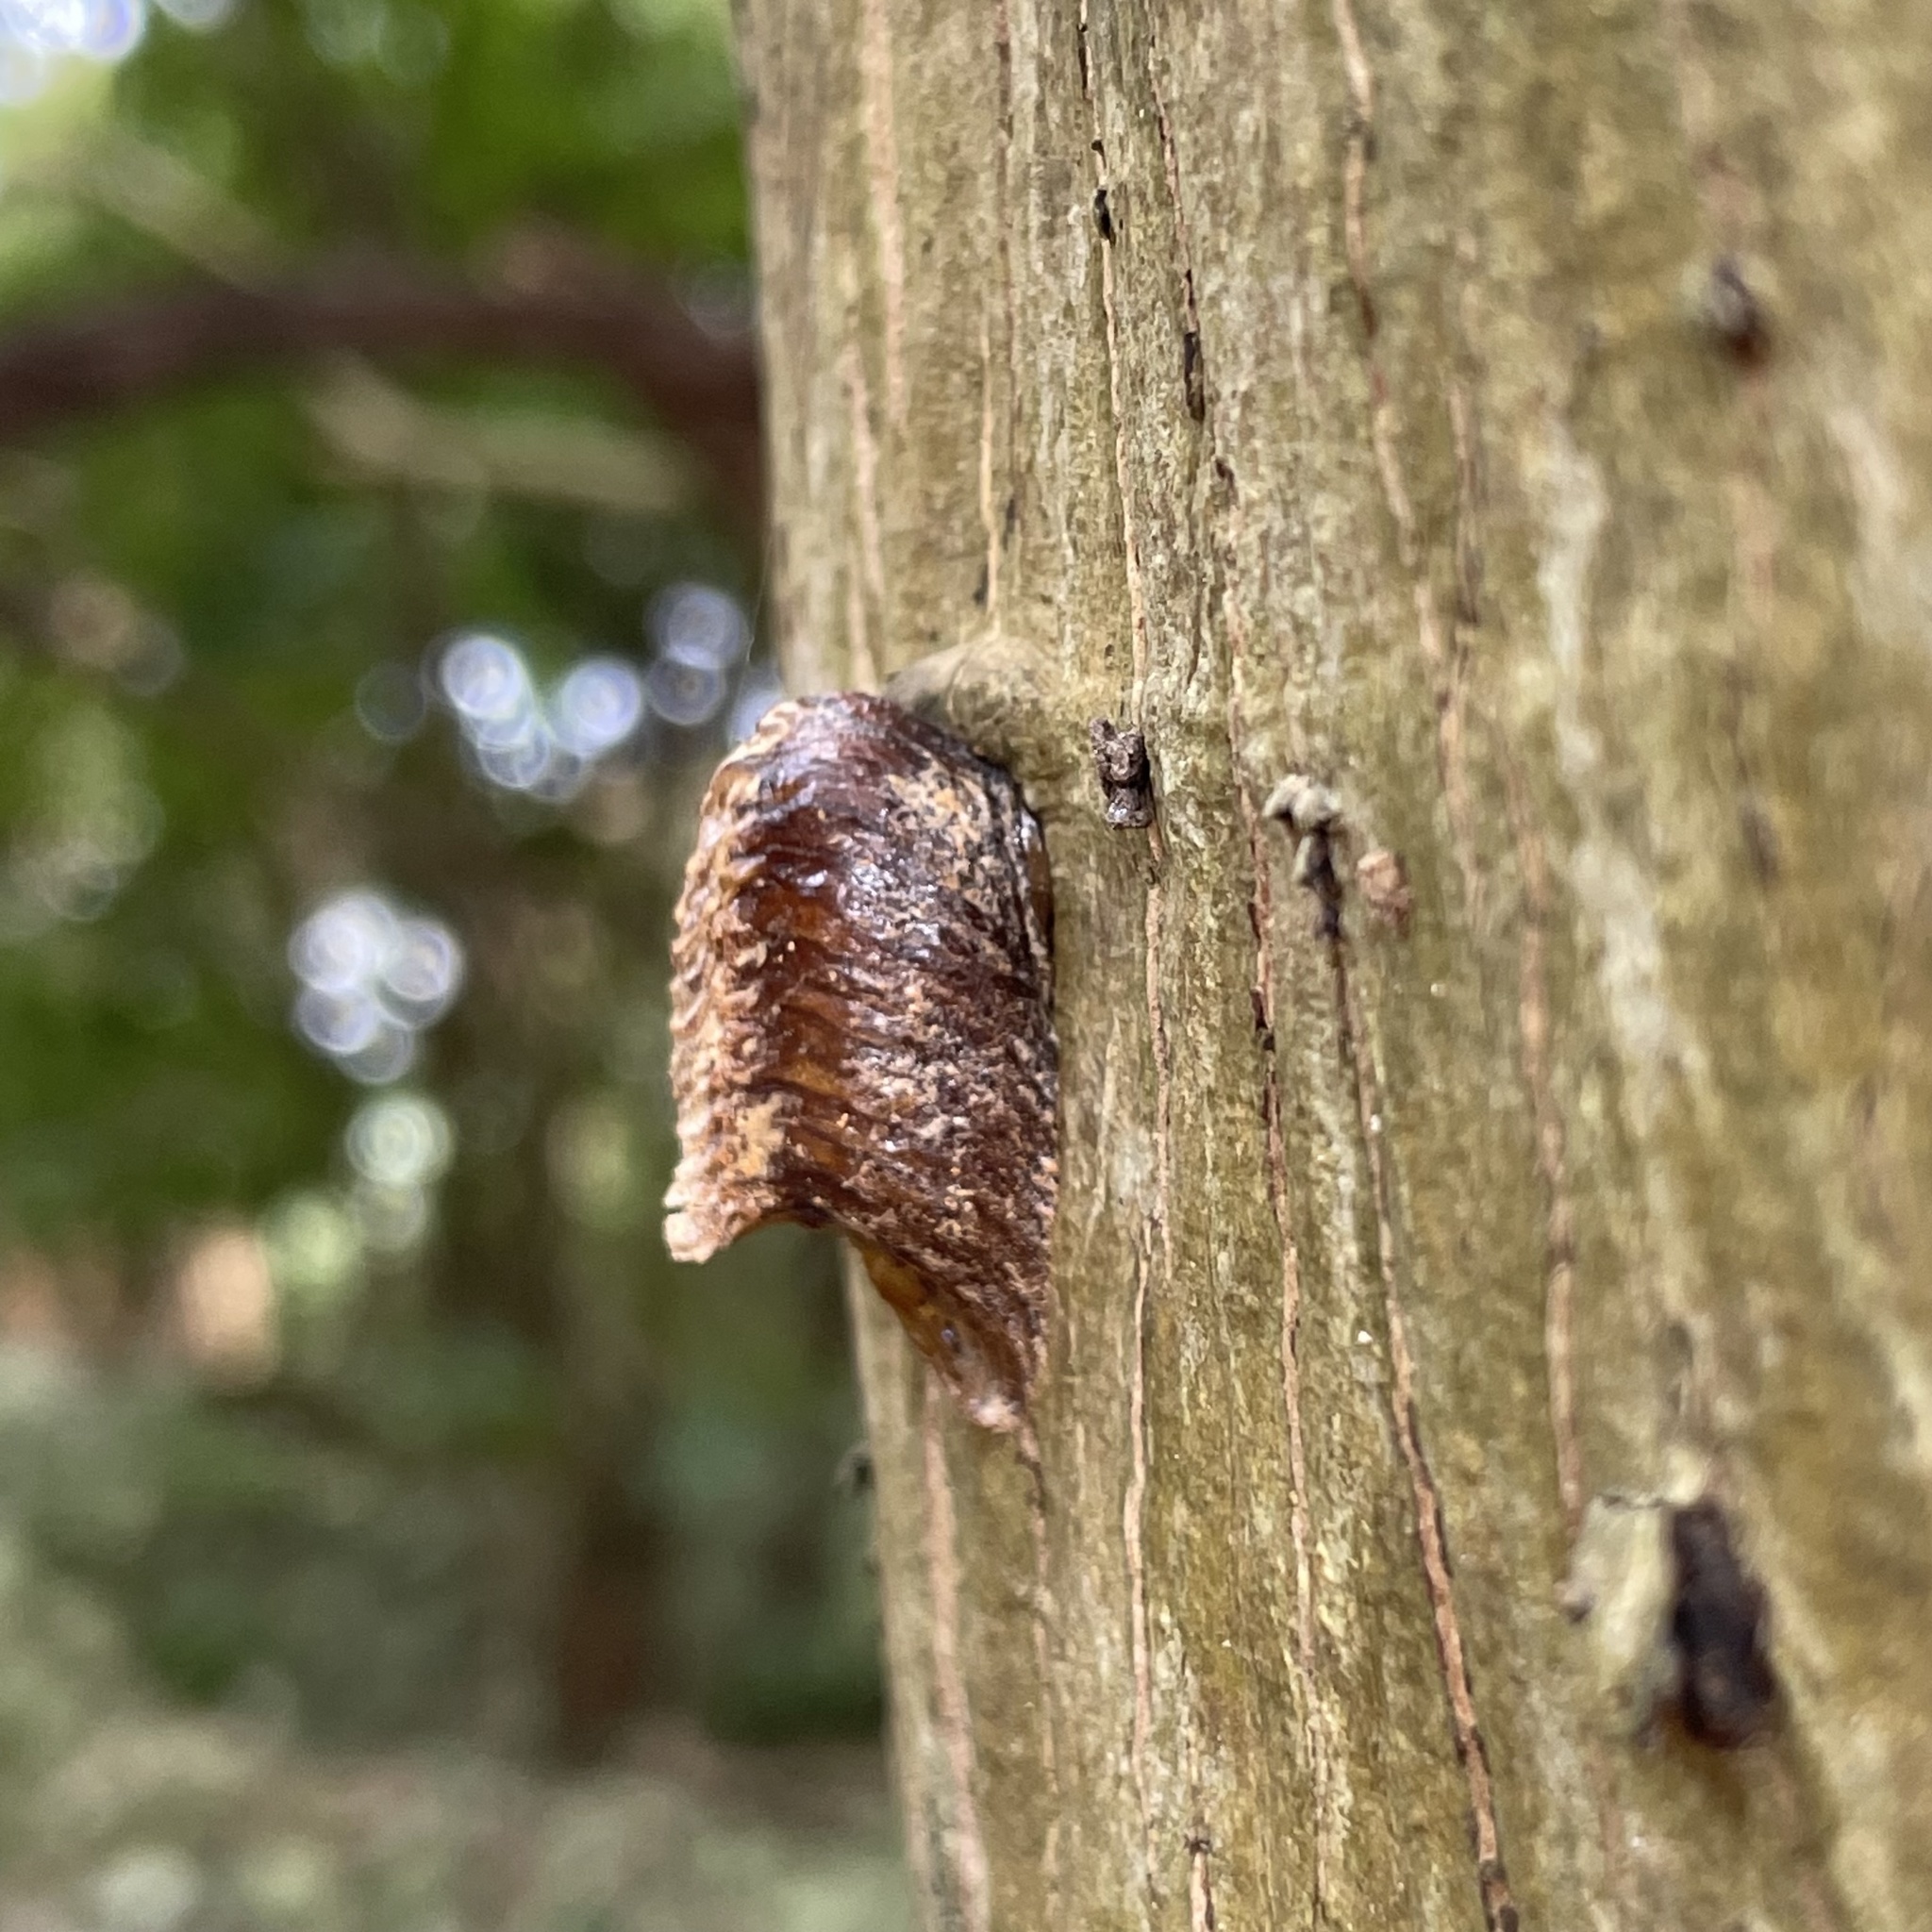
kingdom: Animalia
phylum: Arthropoda
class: Insecta
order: Mantodea
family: Mantidae
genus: Hierodula
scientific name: Hierodula patellifera
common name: Asian mantis
